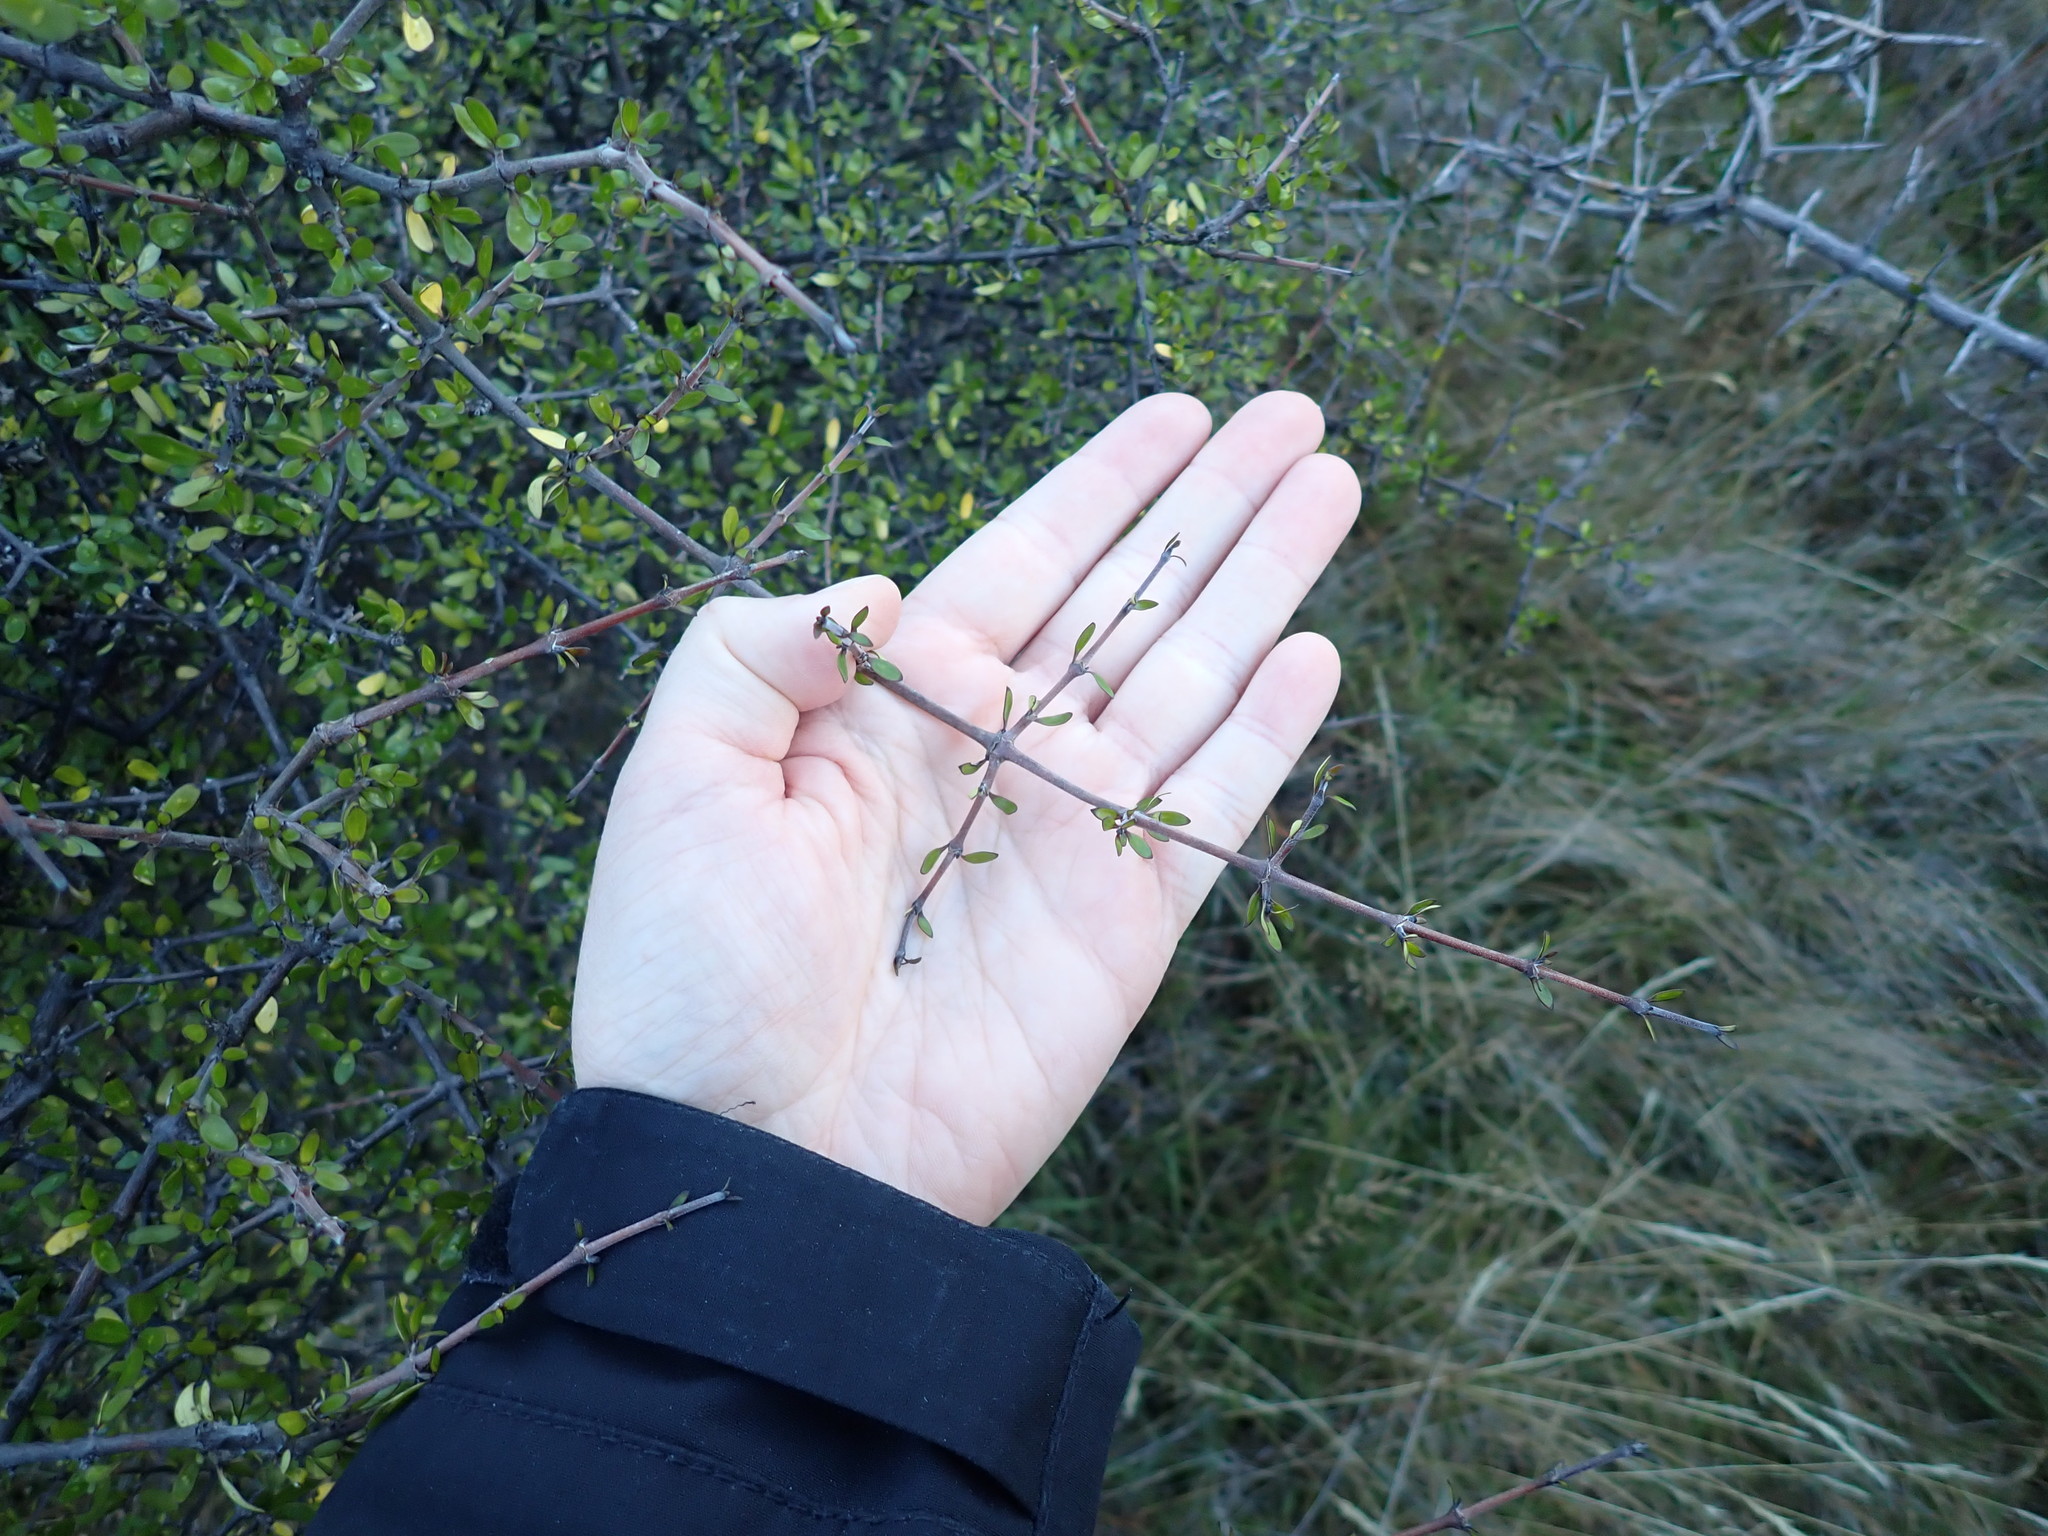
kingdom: Plantae
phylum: Tracheophyta
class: Magnoliopsida
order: Gentianales
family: Rubiaceae
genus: Coprosma
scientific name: Coprosma propinqua
